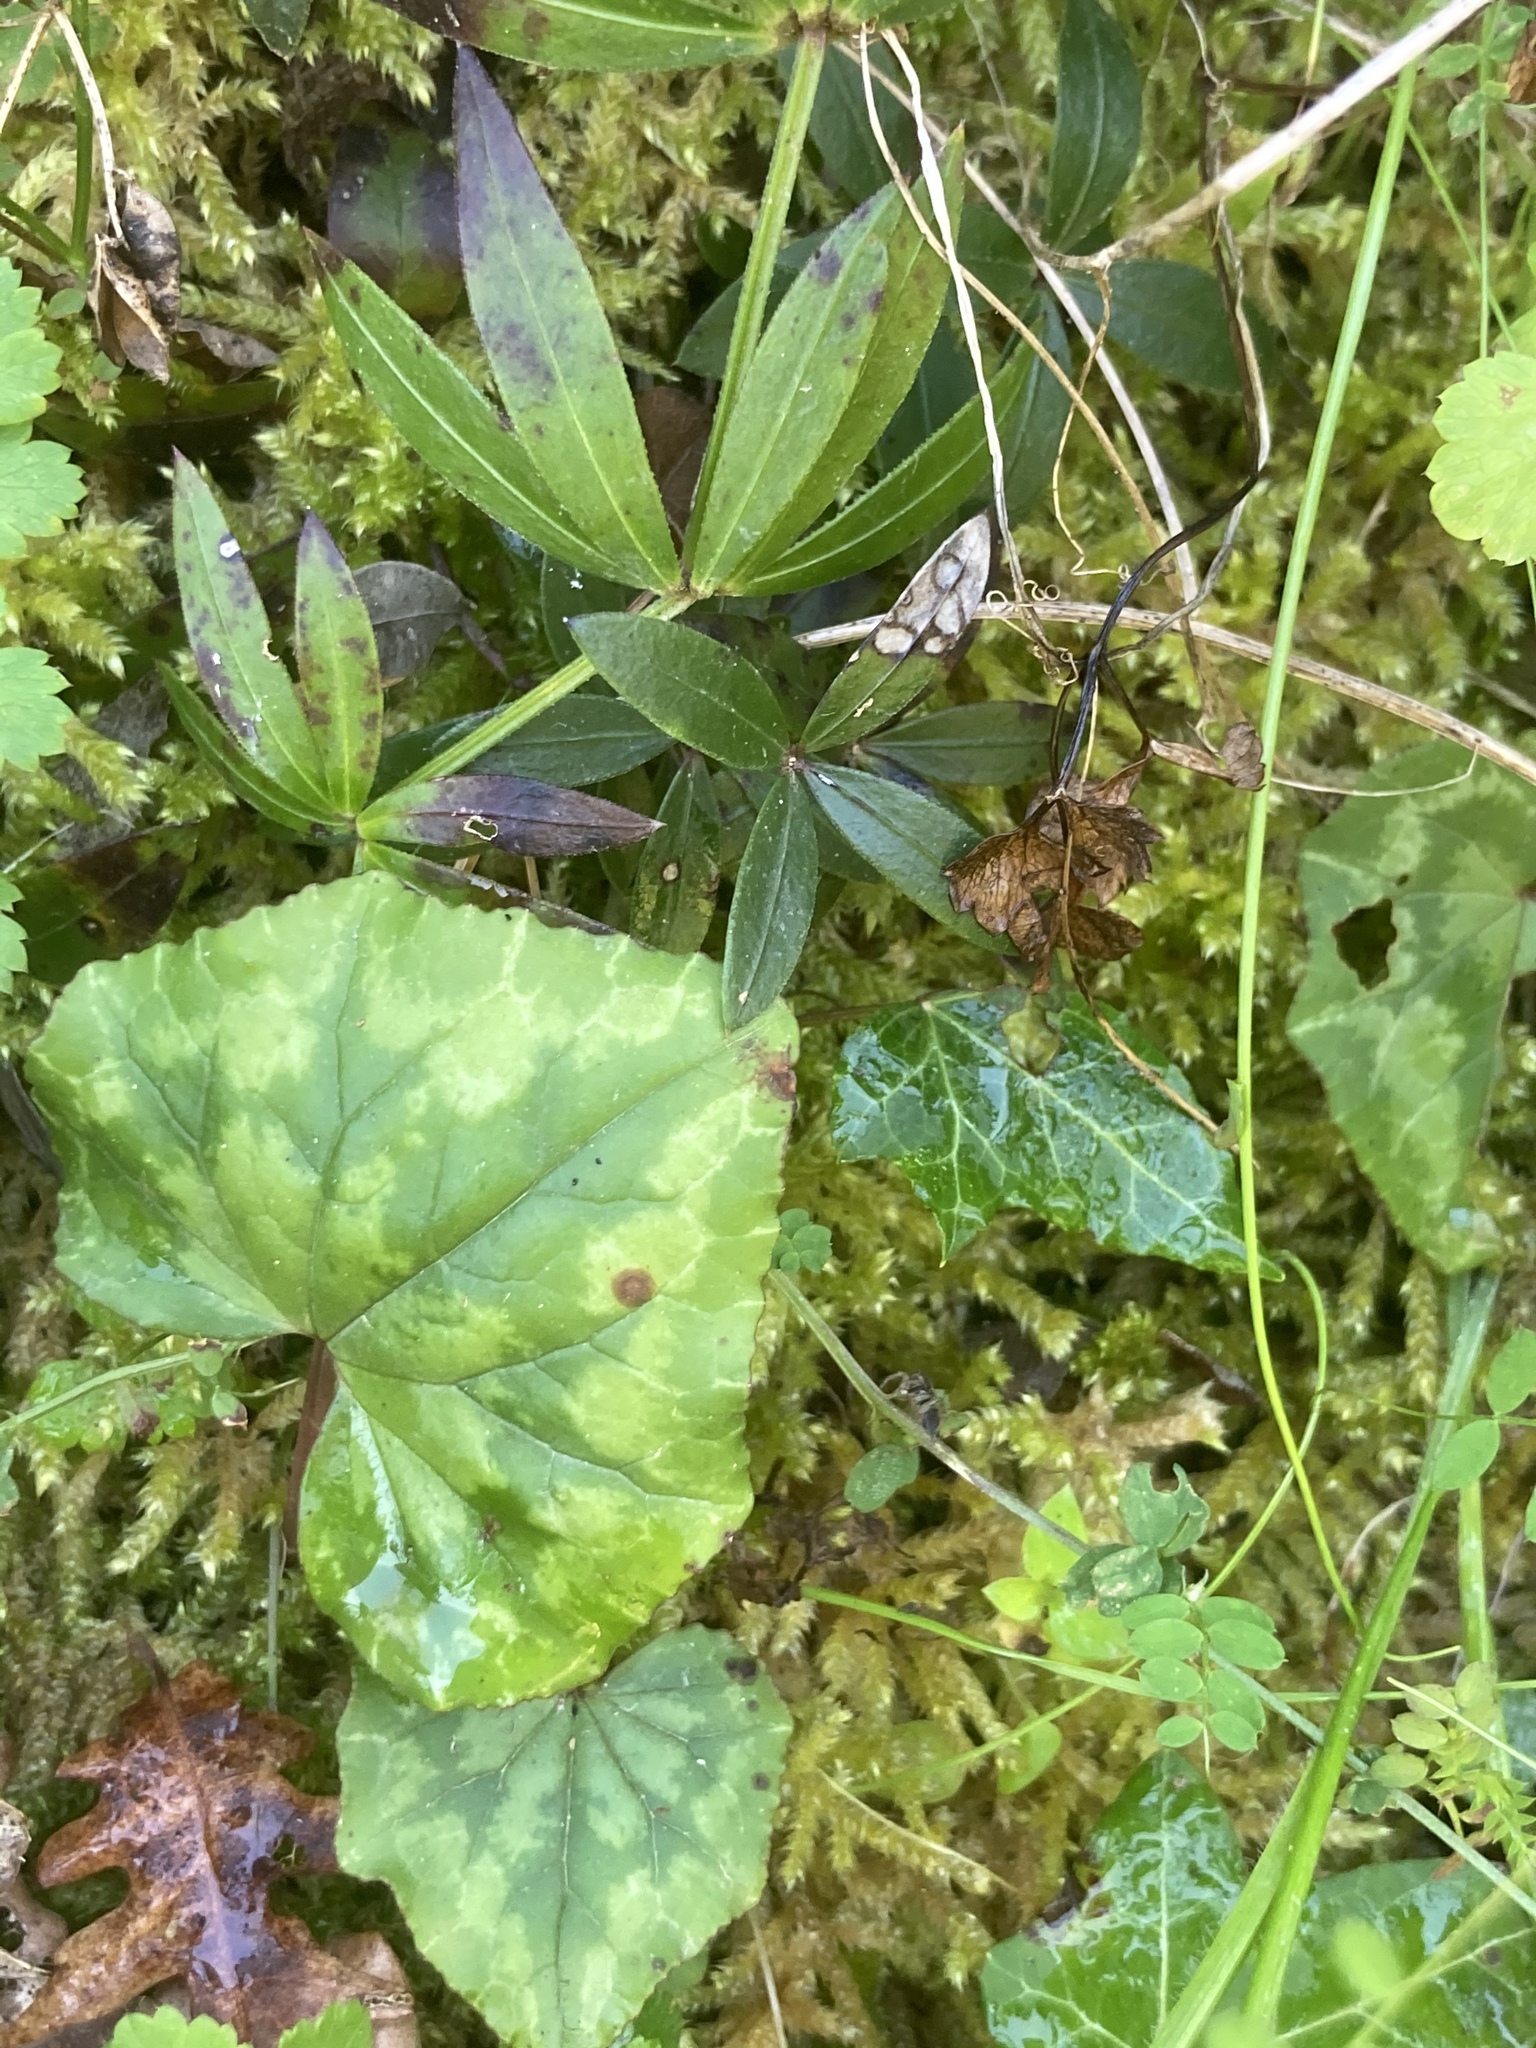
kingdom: Plantae
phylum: Tracheophyta
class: Magnoliopsida
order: Gentianales
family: Rubiaceae
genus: Rubia
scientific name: Rubia peregrina
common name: Wild madder
